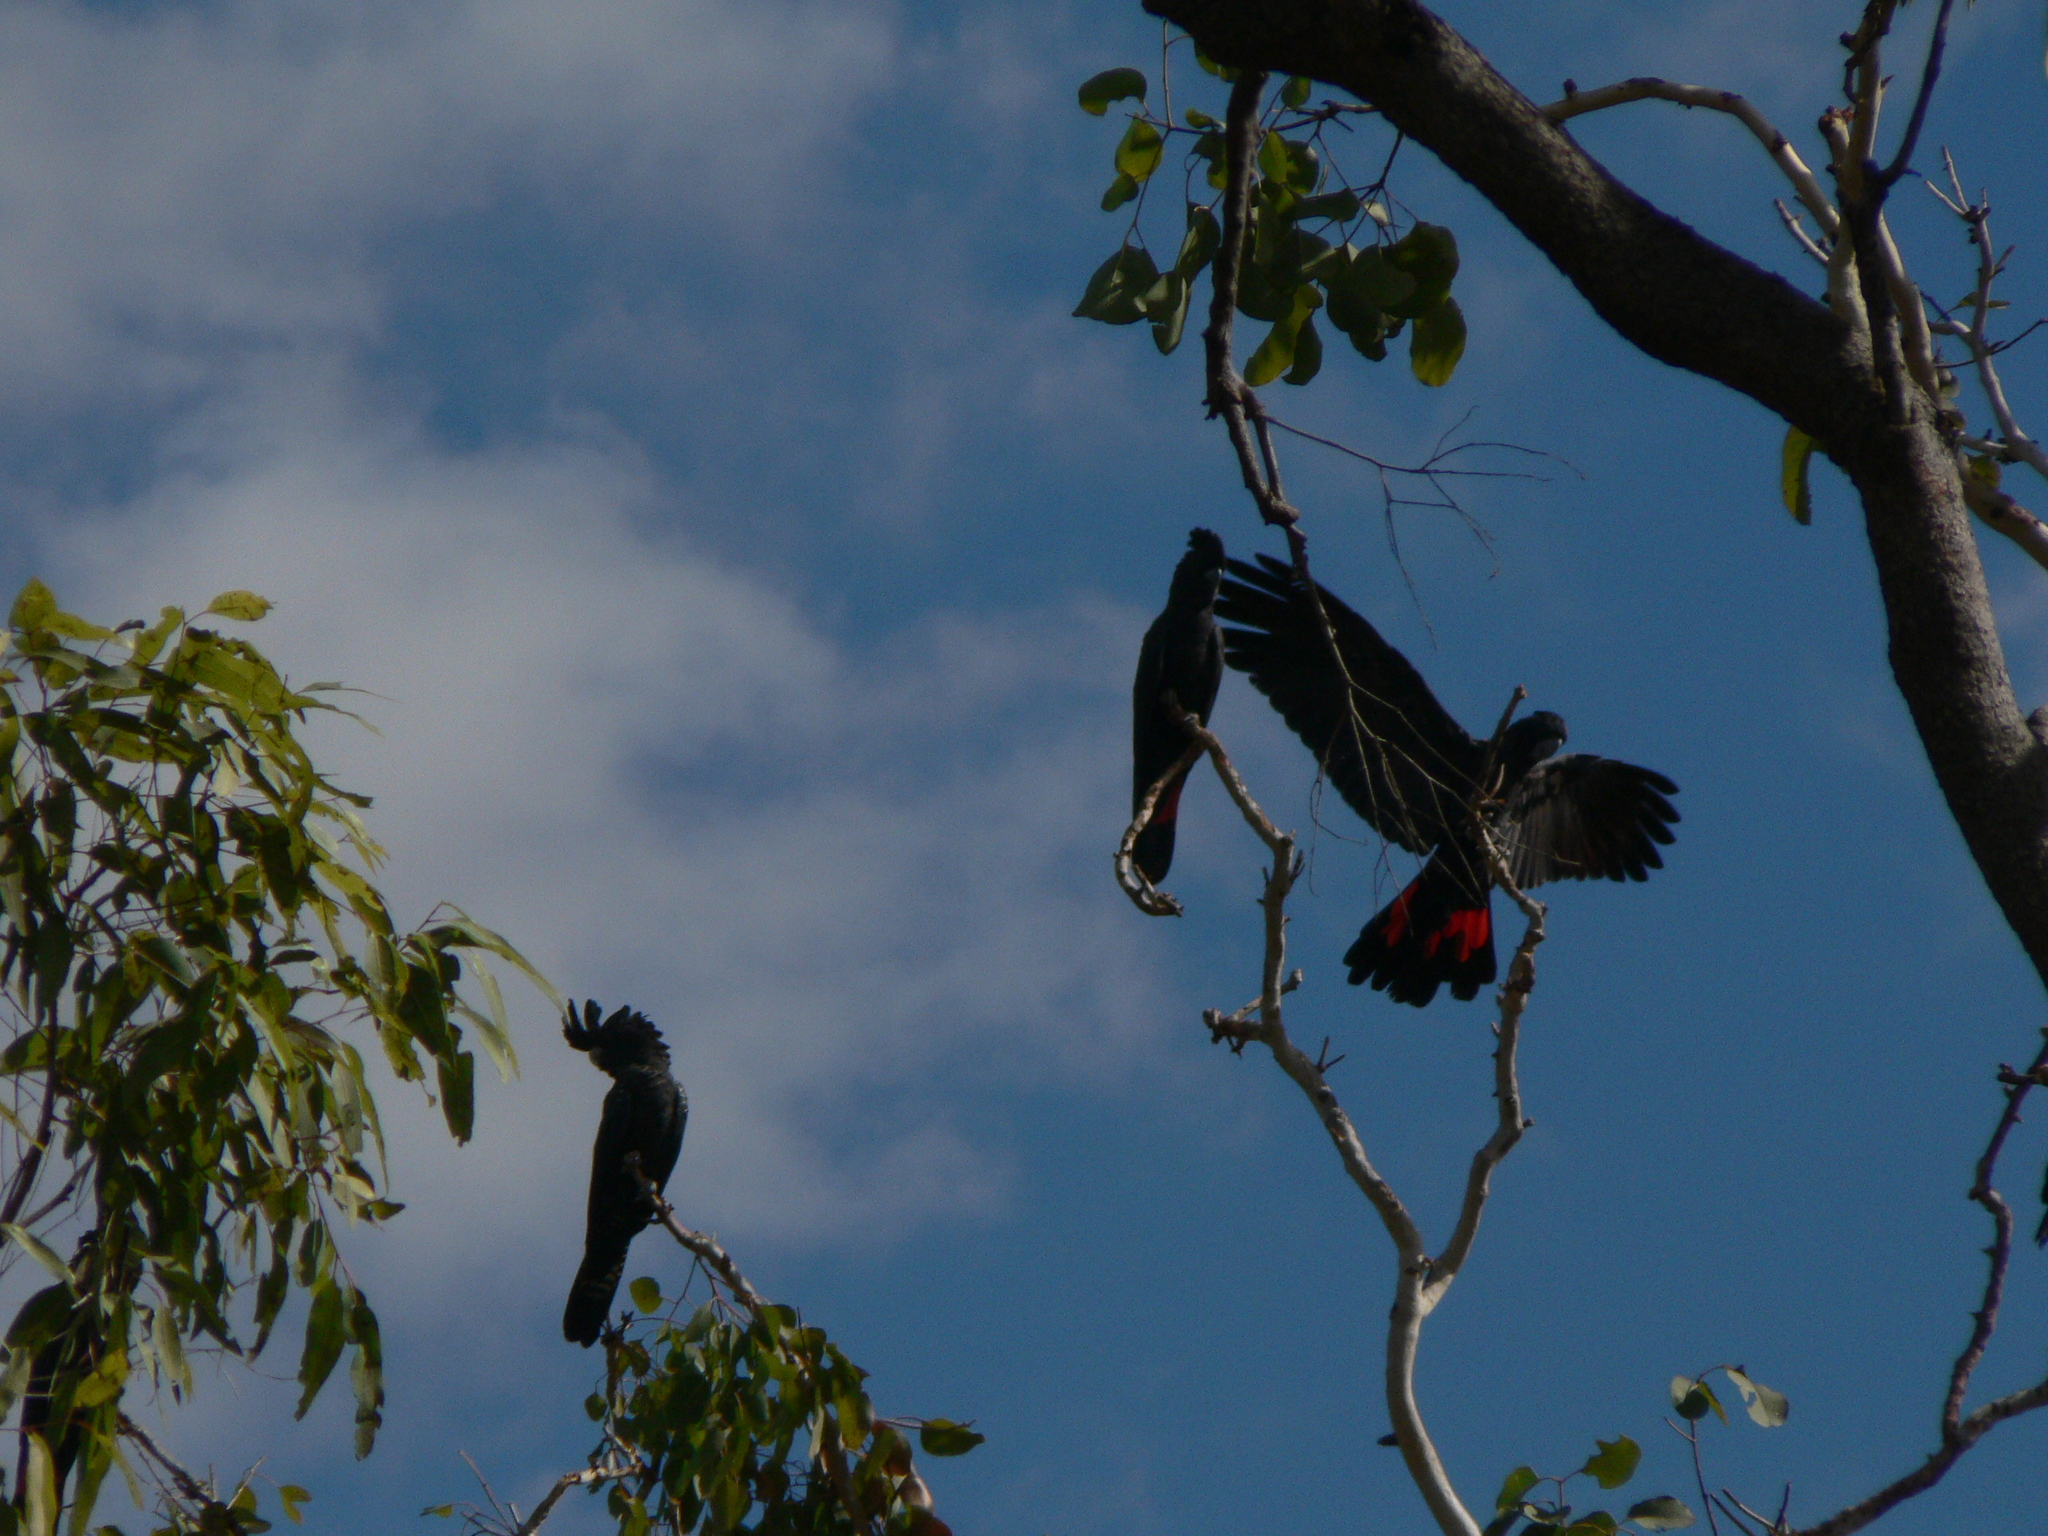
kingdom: Animalia
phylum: Chordata
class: Aves
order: Psittaciformes
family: Psittacidae
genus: Calyptorhynchus
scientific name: Calyptorhynchus banksii
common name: Red-tailed black cockatoo
